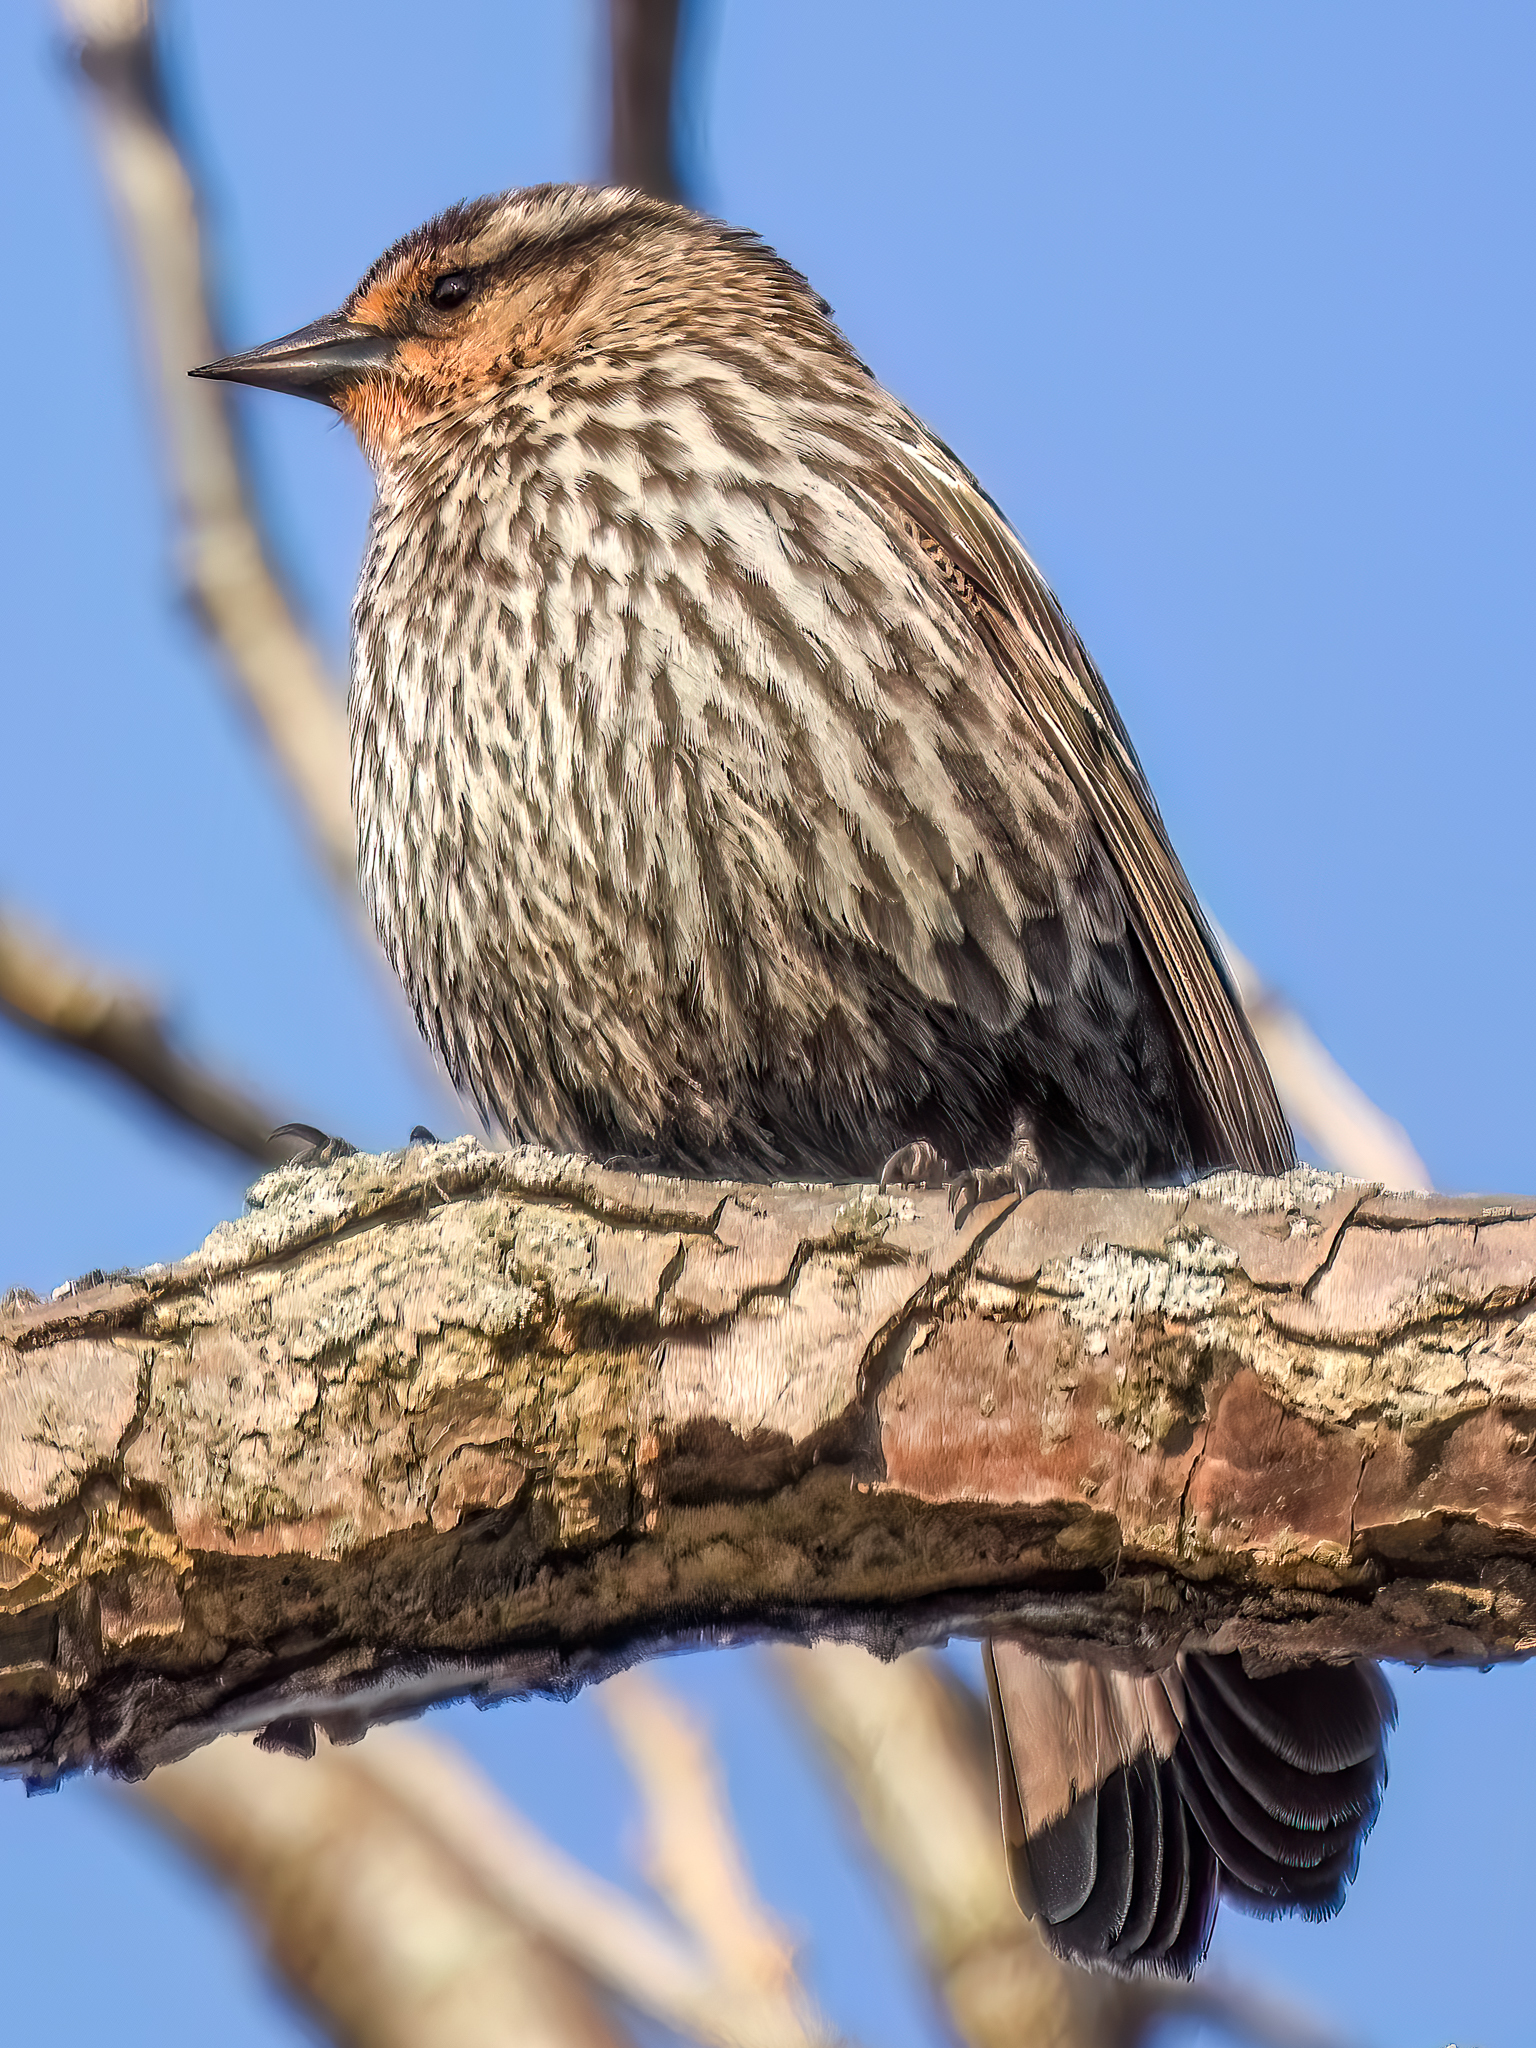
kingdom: Animalia
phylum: Chordata
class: Aves
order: Passeriformes
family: Icteridae
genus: Agelaius
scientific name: Agelaius phoeniceus
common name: Red-winged blackbird
